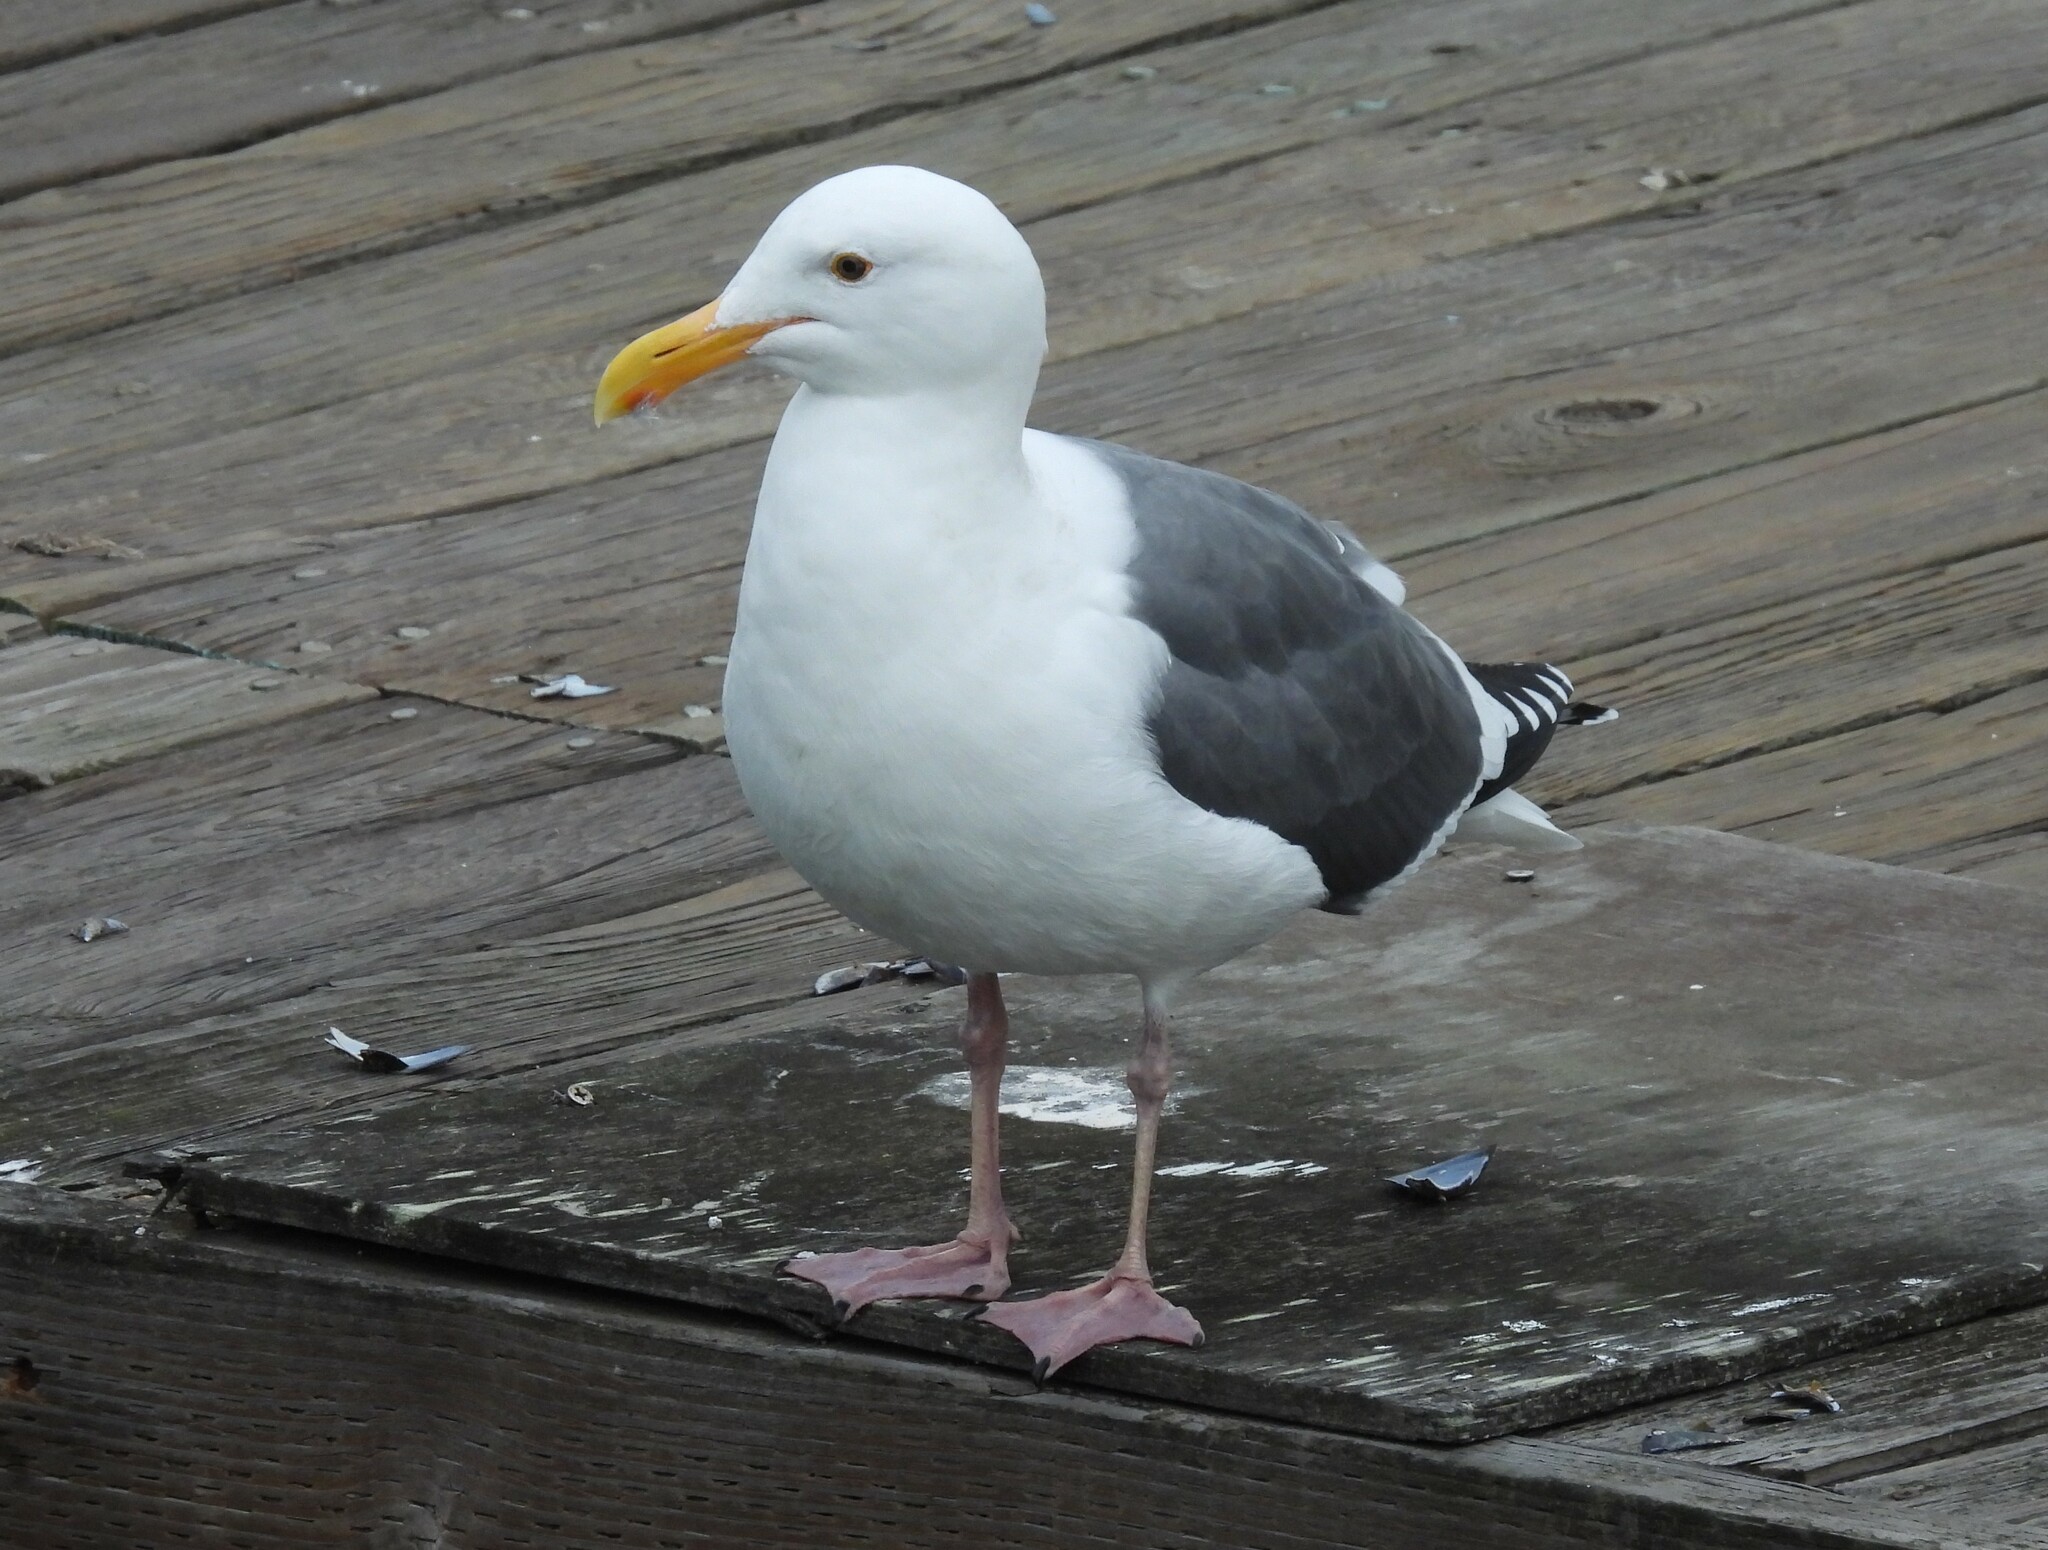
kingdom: Animalia
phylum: Chordata
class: Aves
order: Charadriiformes
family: Laridae
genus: Larus
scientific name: Larus occidentalis
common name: Western gull
